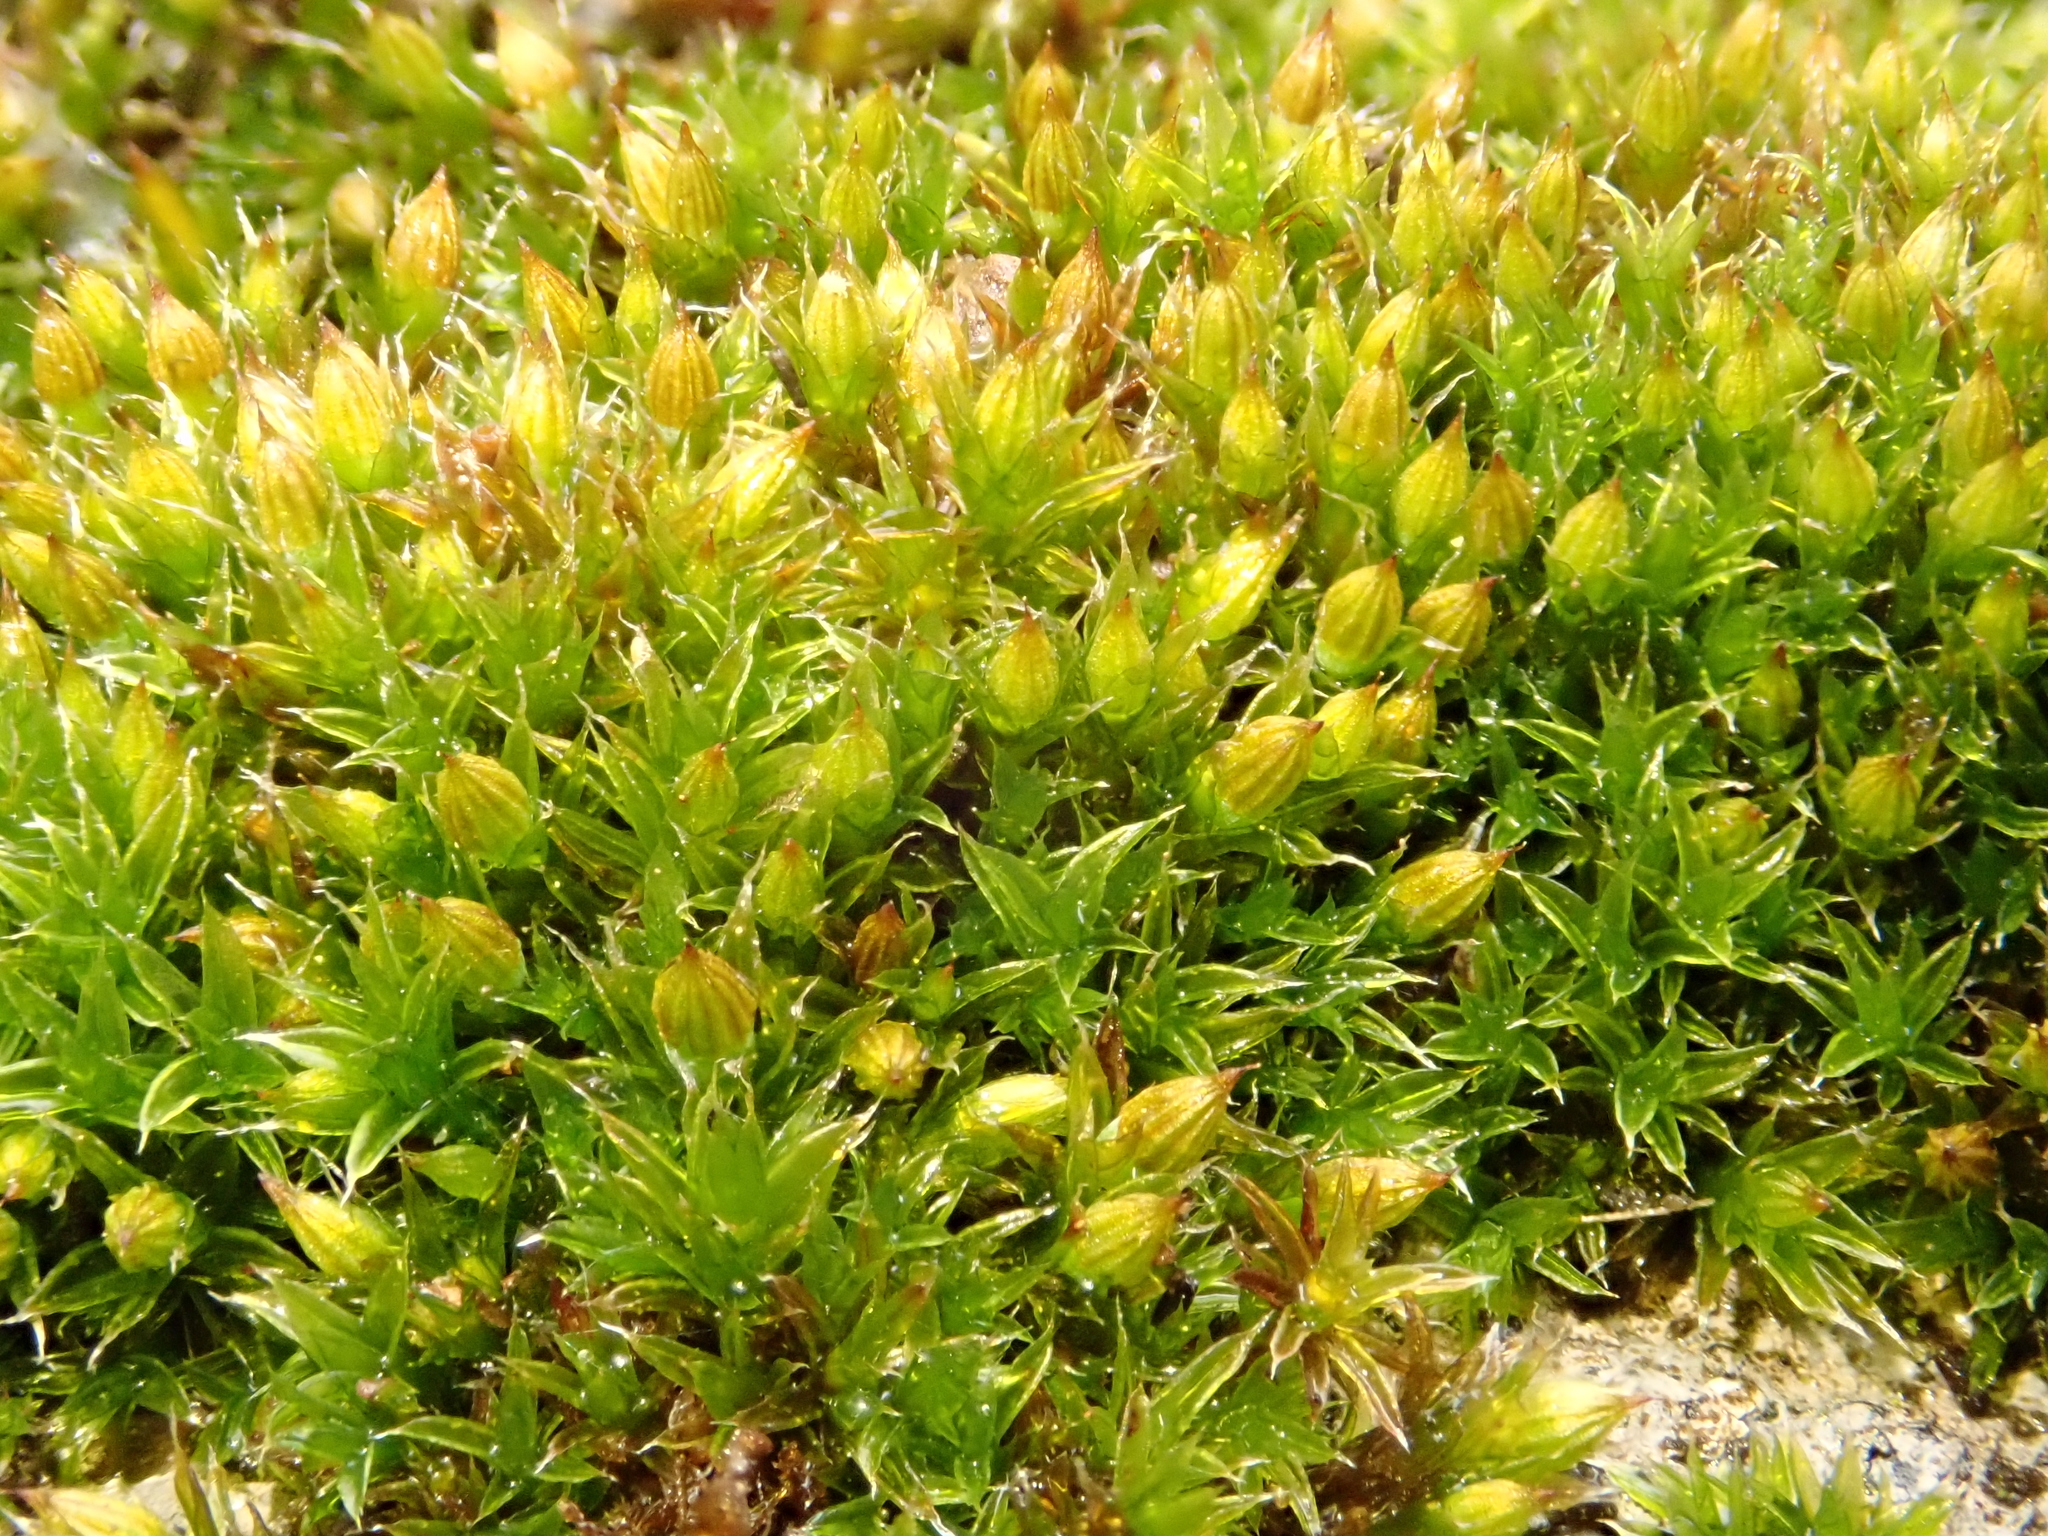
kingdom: Plantae
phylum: Bryophyta
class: Bryopsida
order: Orthotrichales
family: Orthotrichaceae
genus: Orthotrichum
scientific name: Orthotrichum diaphanum
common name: White-tipped bristle-moss
